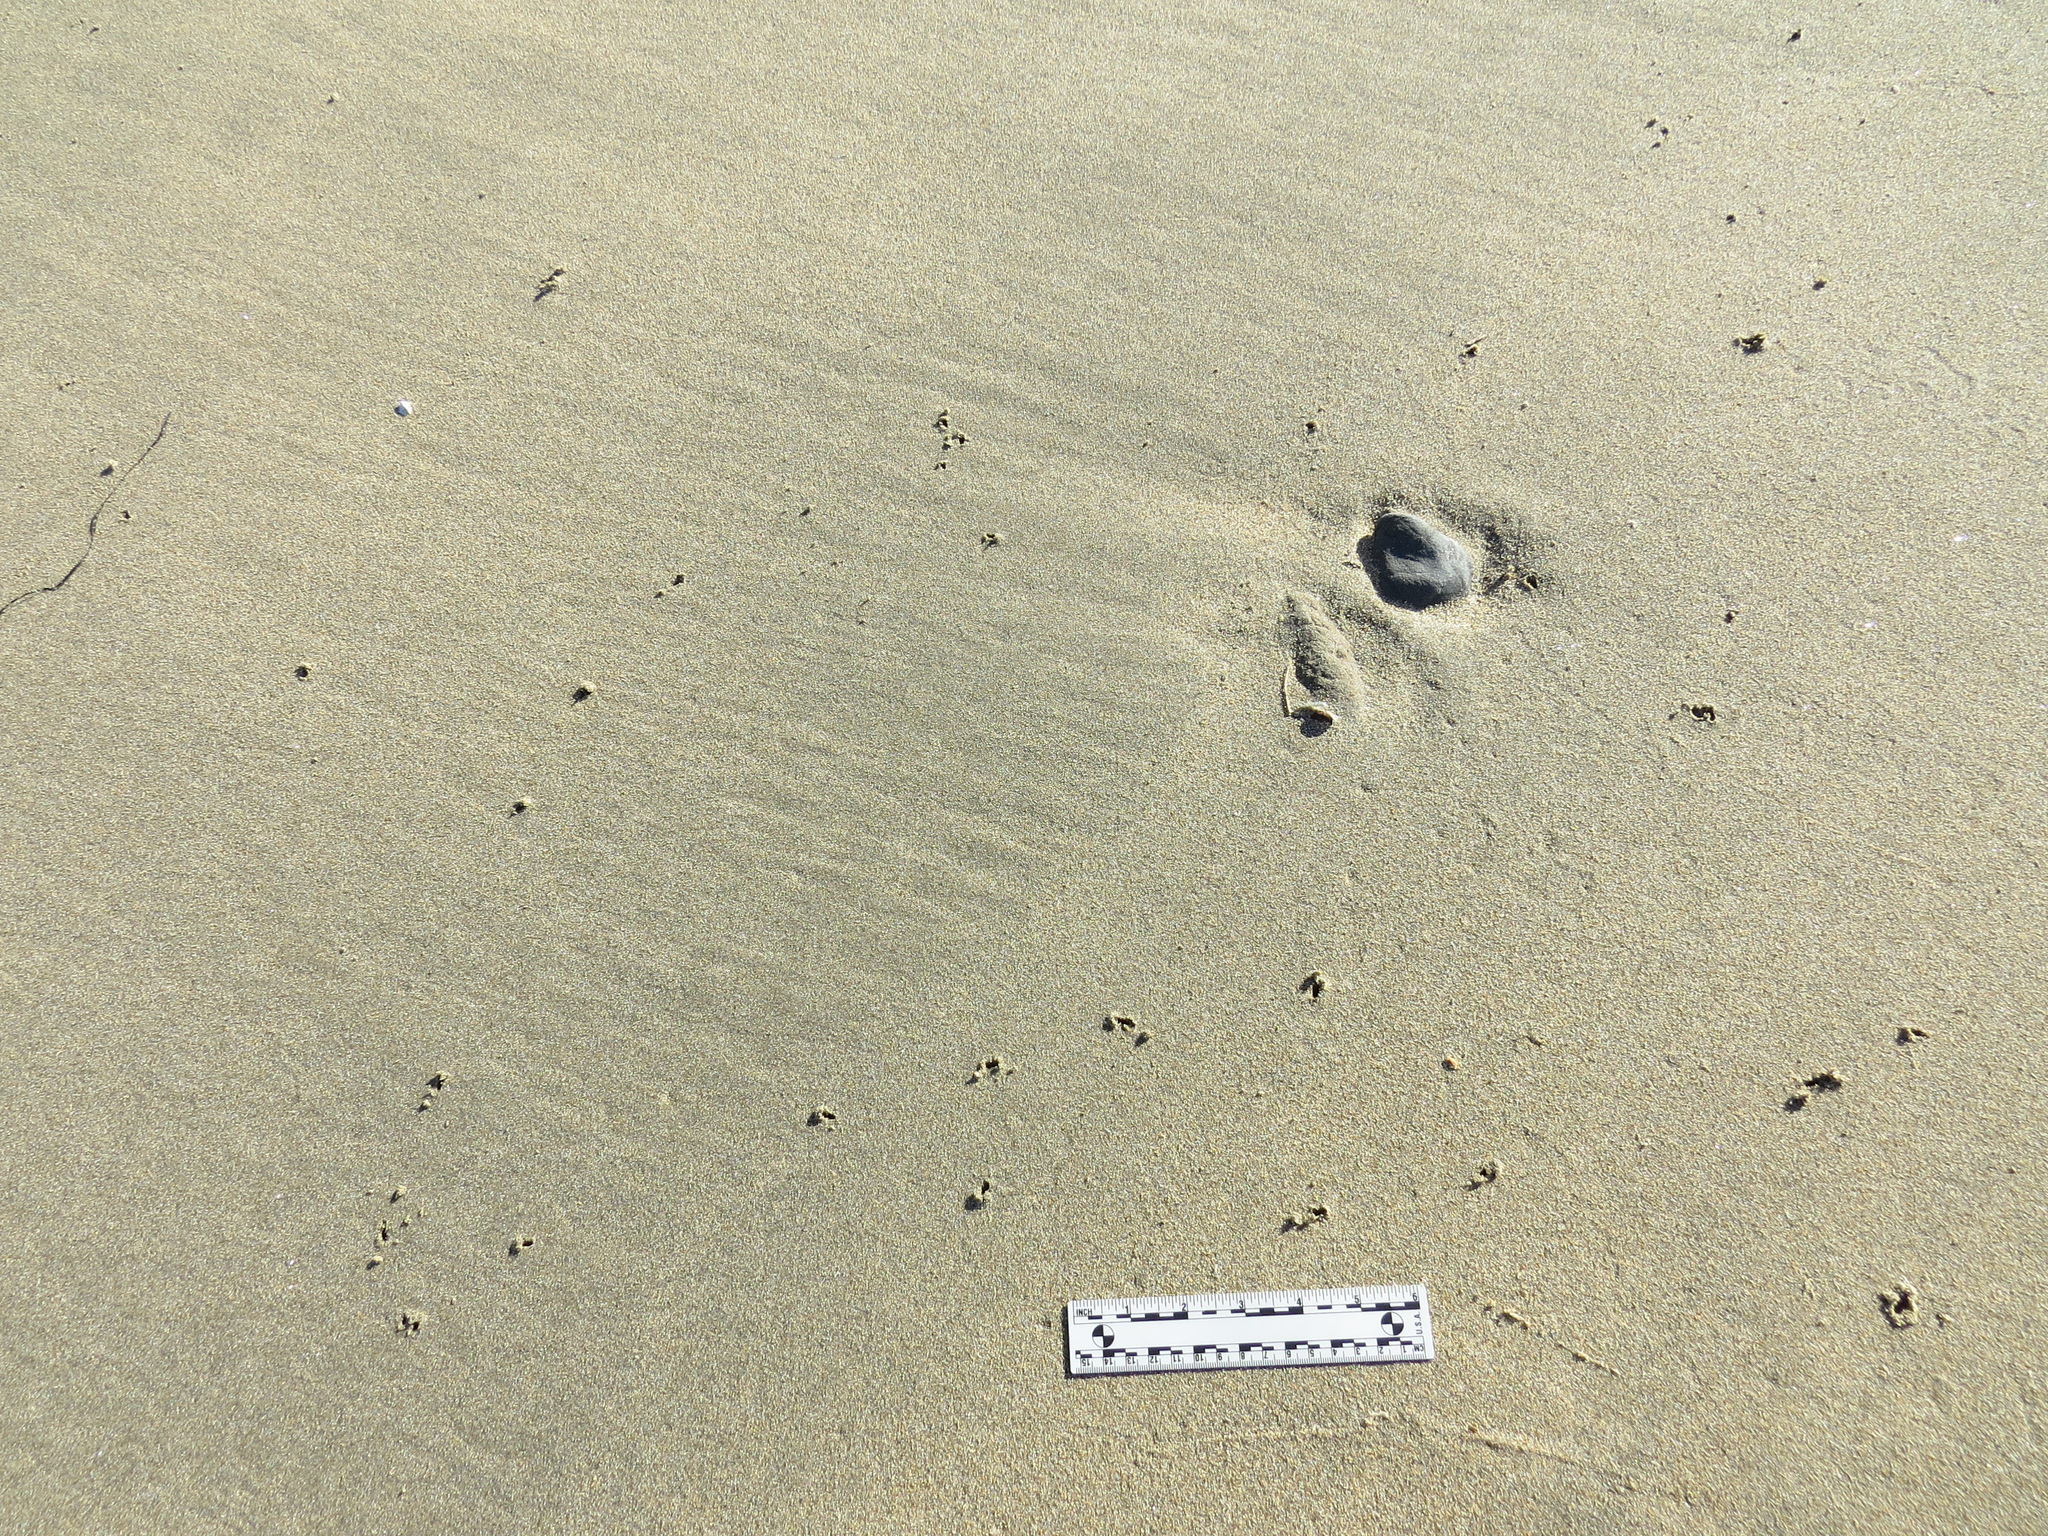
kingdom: Animalia
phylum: Chordata
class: Aves
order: Charadriiformes
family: Scolopacidae
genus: Arenaria
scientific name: Arenaria melanocephala
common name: Black turnstone
